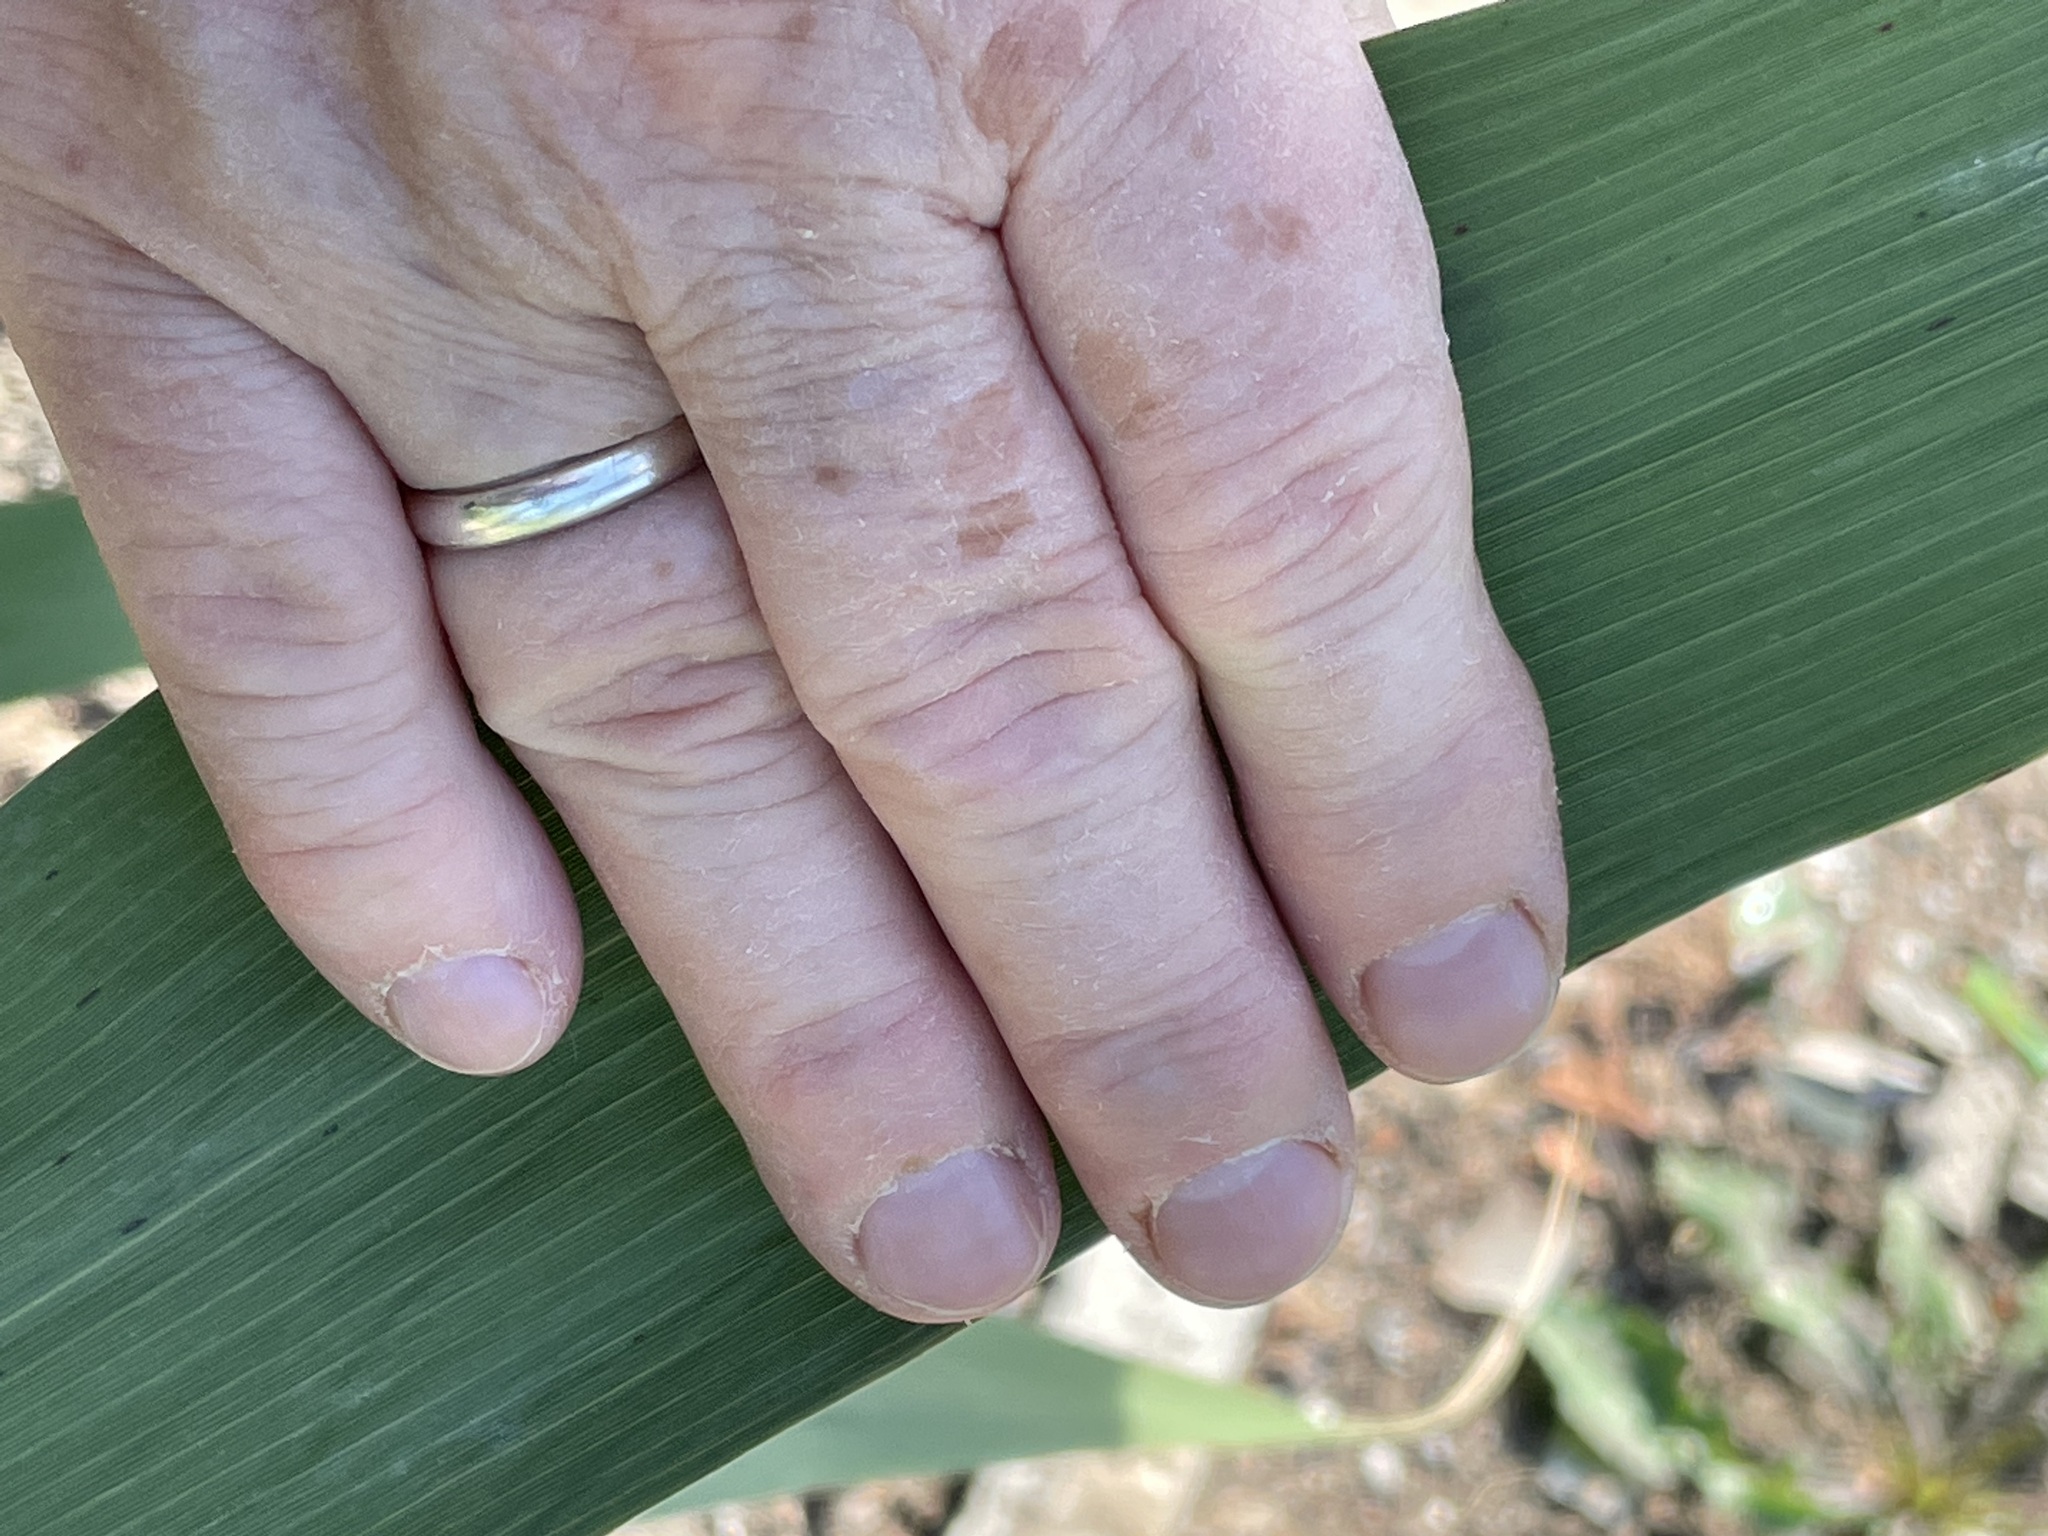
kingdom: Plantae
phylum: Tracheophyta
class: Liliopsida
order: Poales
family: Poaceae
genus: Phragmites
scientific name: Phragmites australis
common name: Common reed
